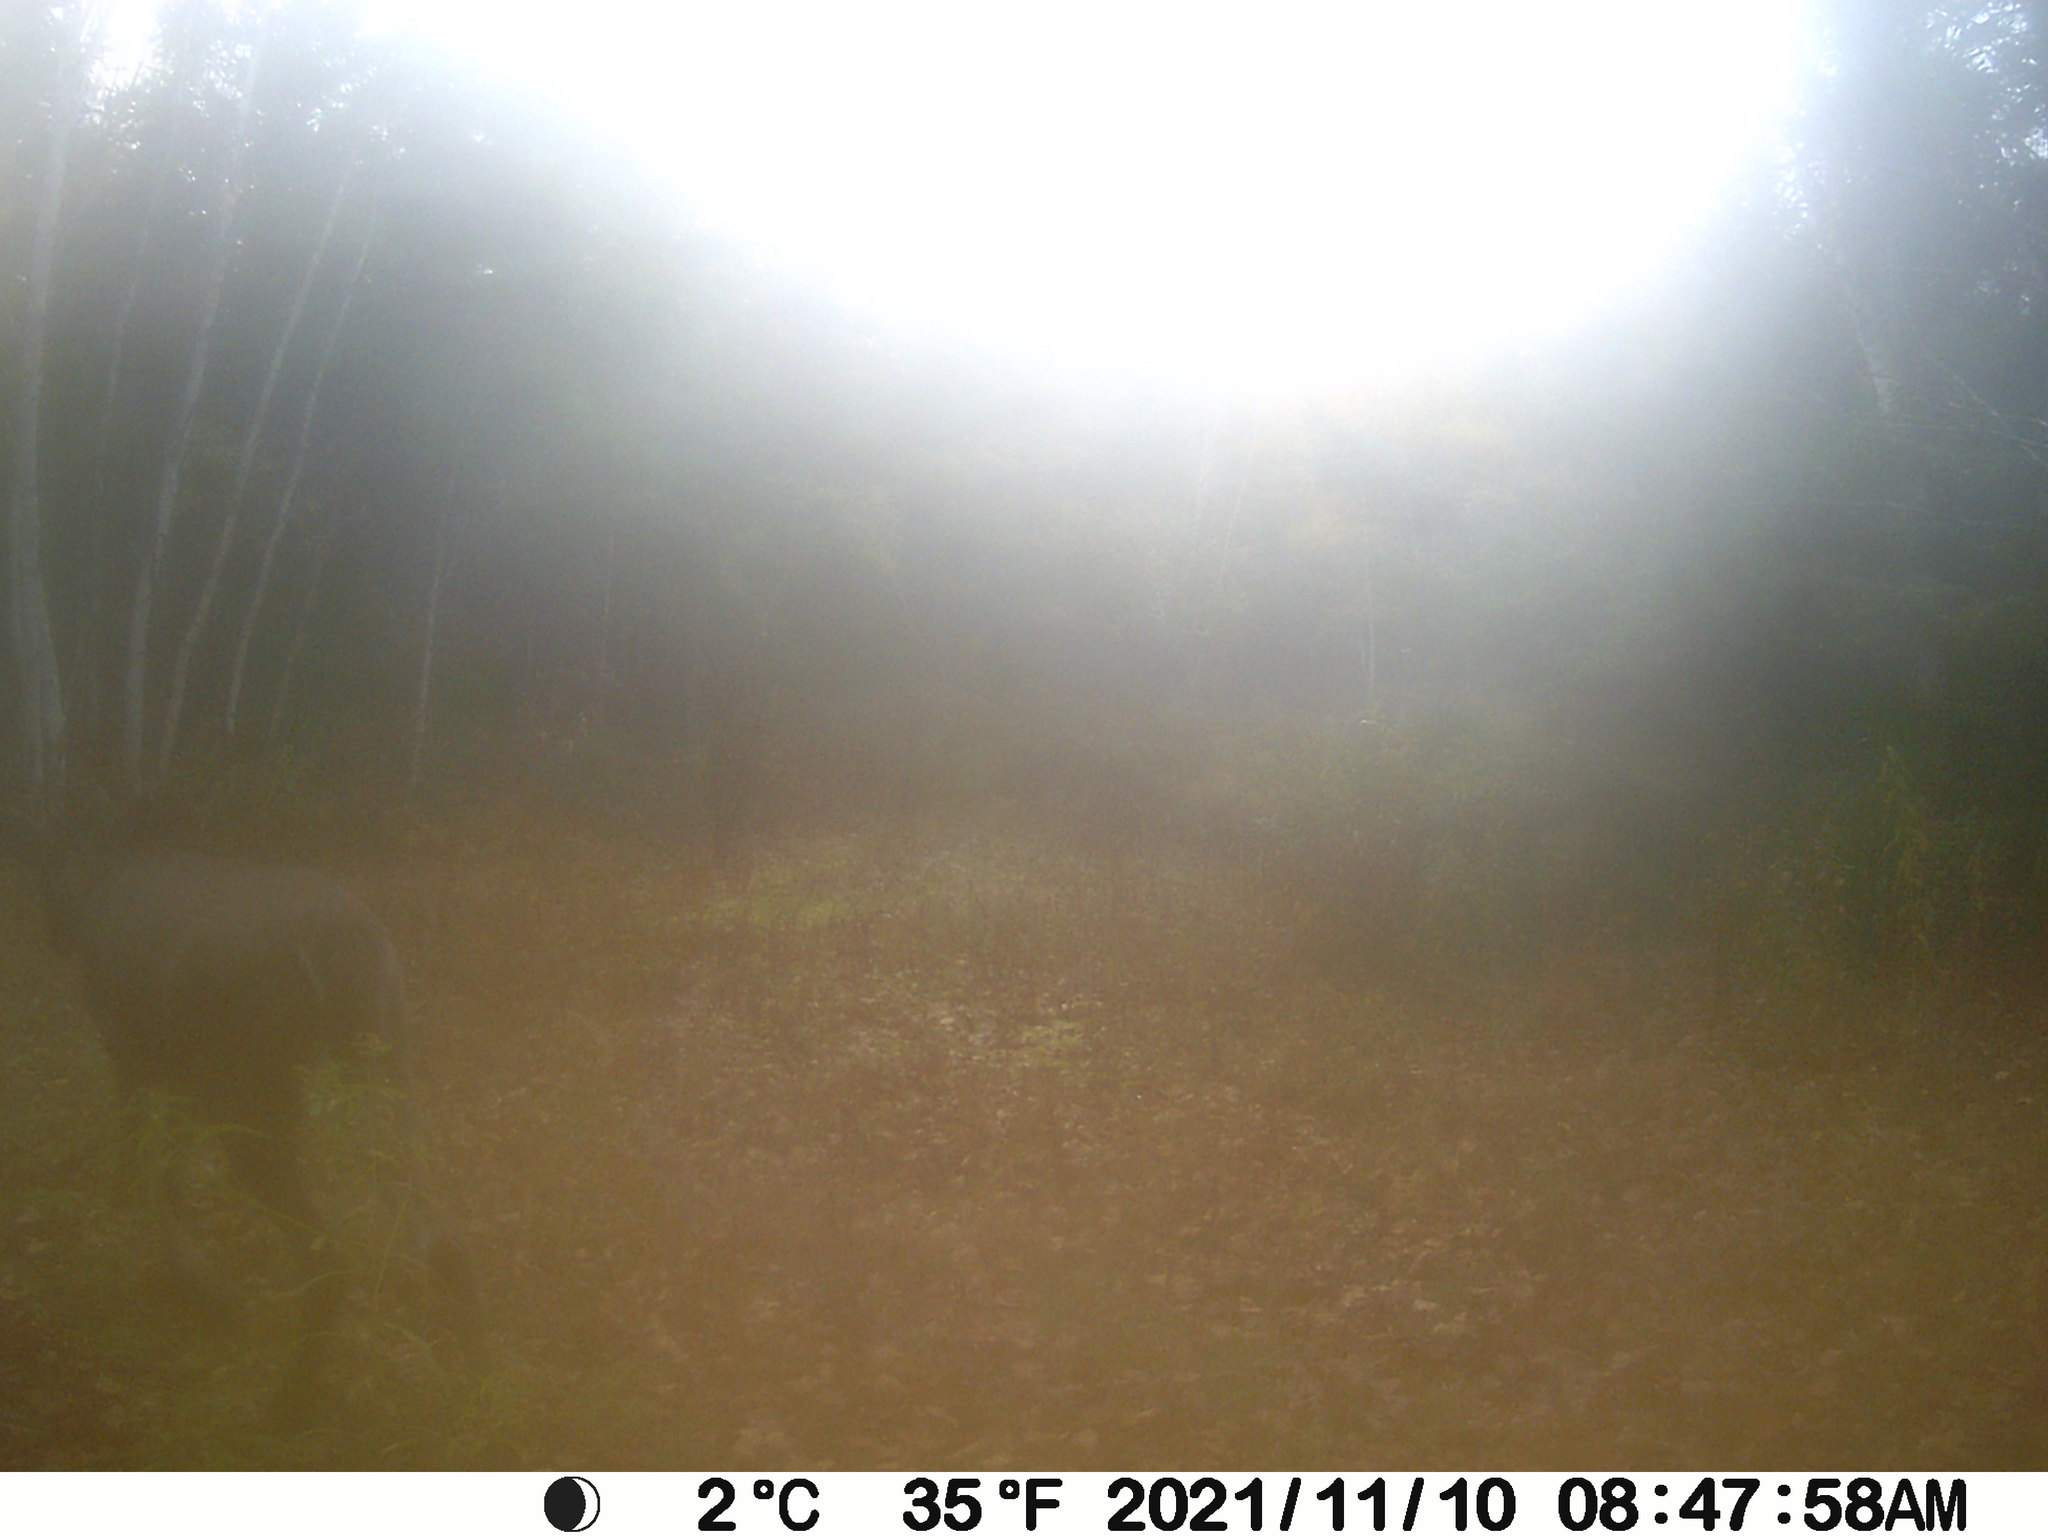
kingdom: Animalia
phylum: Chordata
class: Mammalia
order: Artiodactyla
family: Cervidae
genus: Odocoileus
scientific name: Odocoileus virginianus
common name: White-tailed deer
